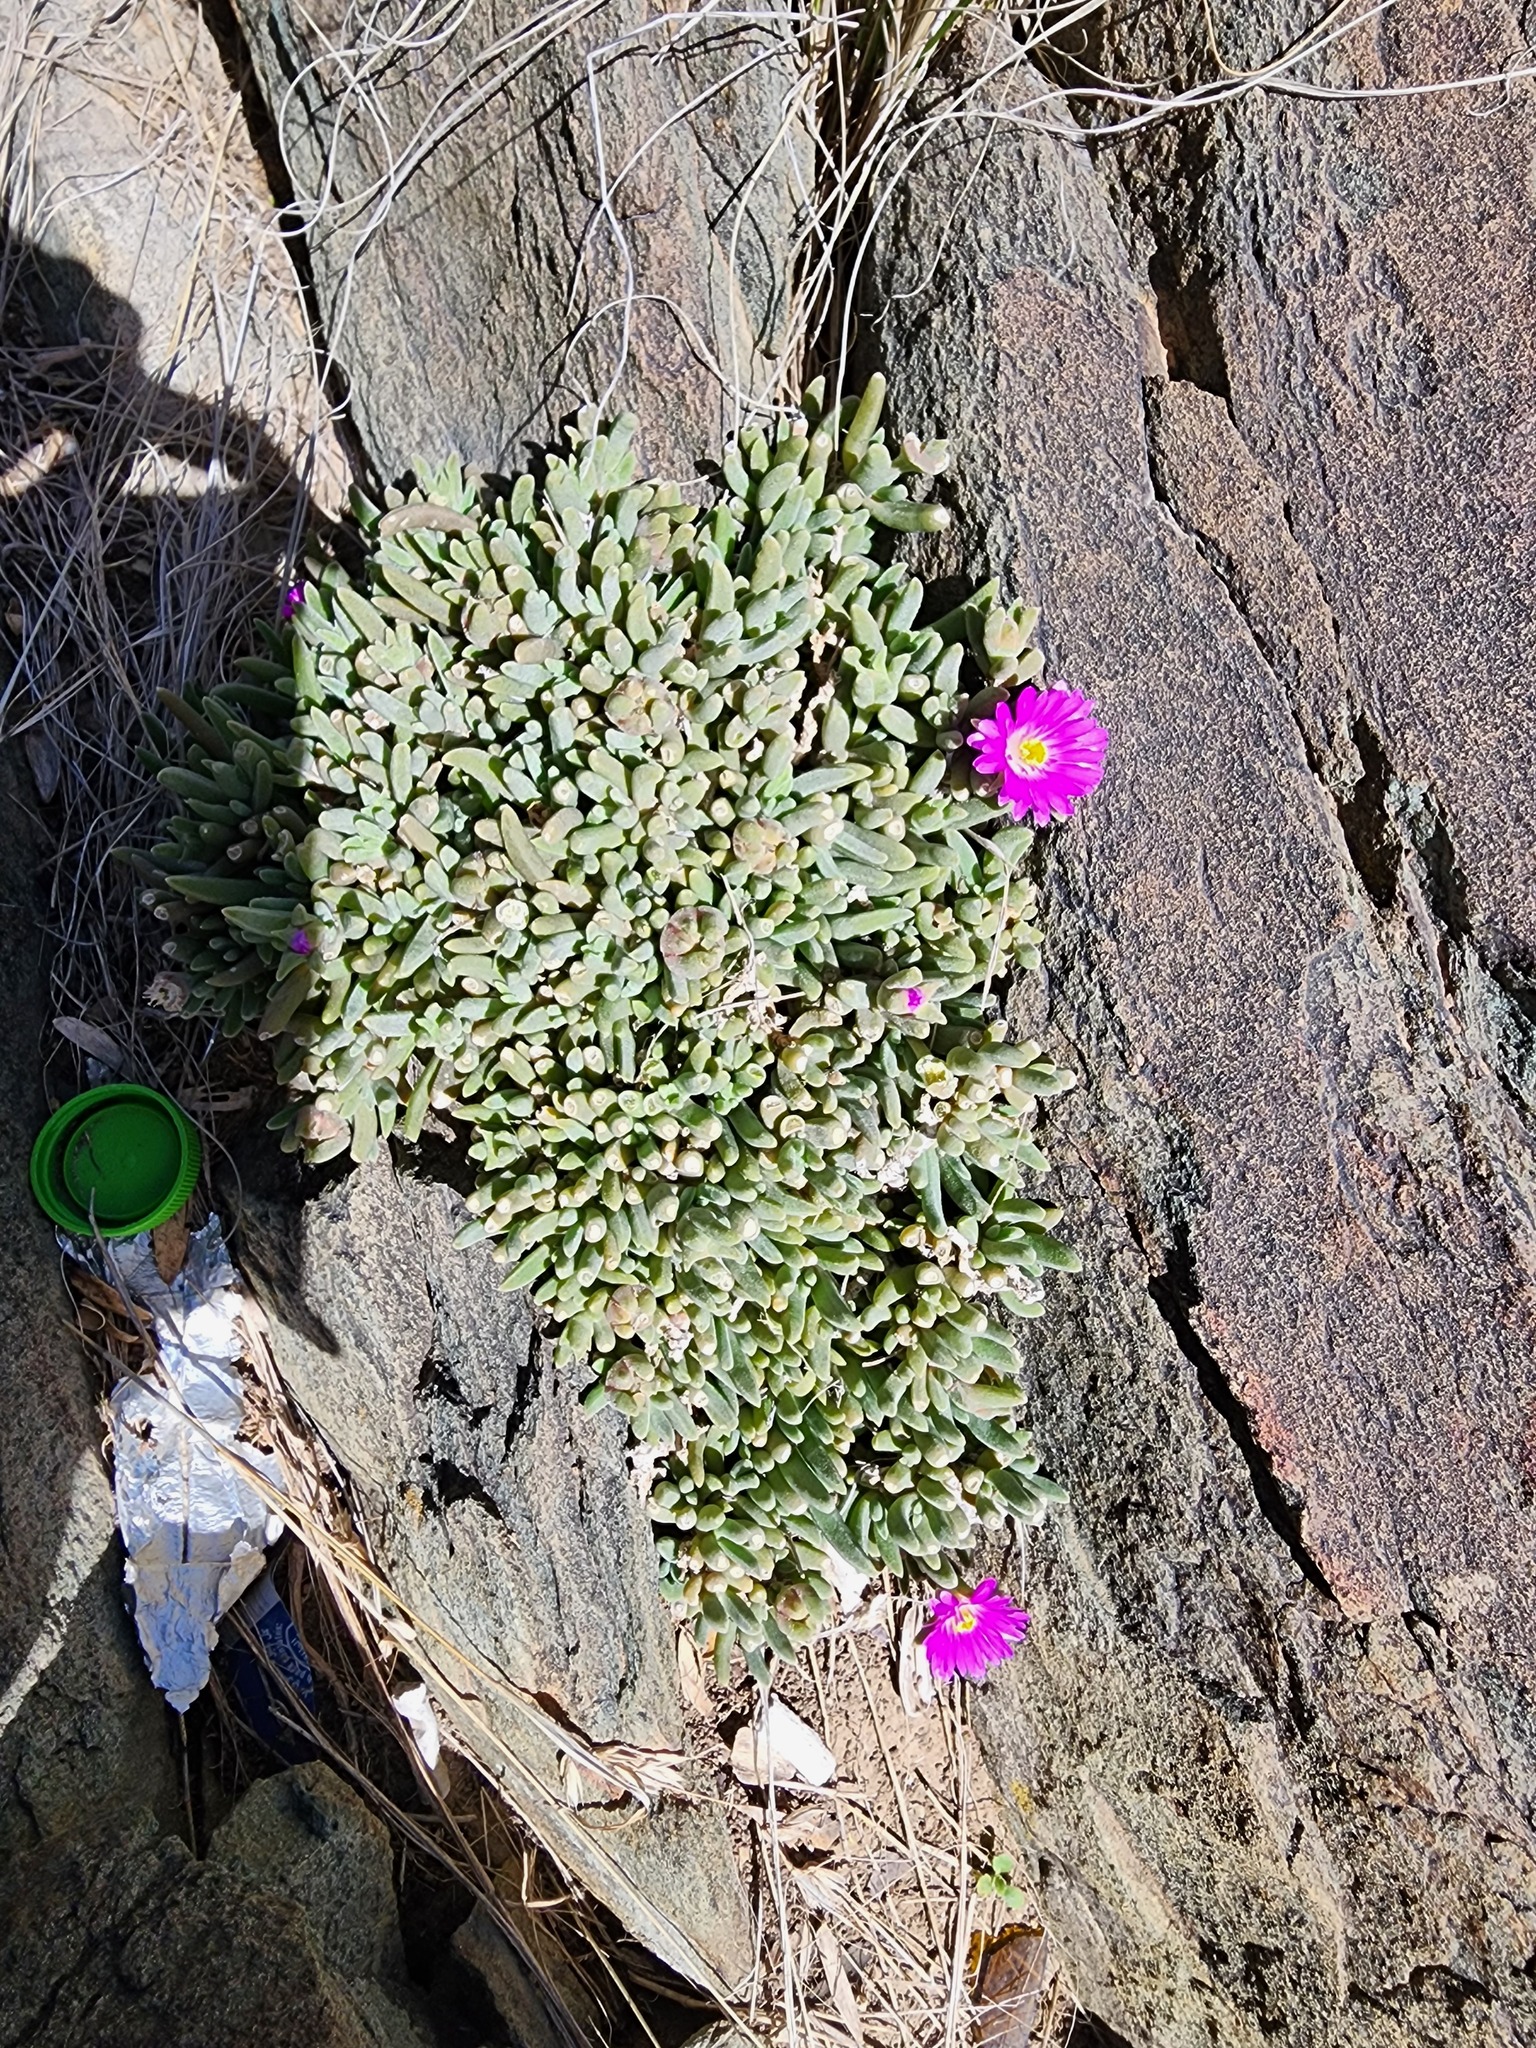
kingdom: Plantae
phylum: Tracheophyta
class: Magnoliopsida
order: Caryophyllales
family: Aizoaceae
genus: Delosperma
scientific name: Delosperma sawdahense
